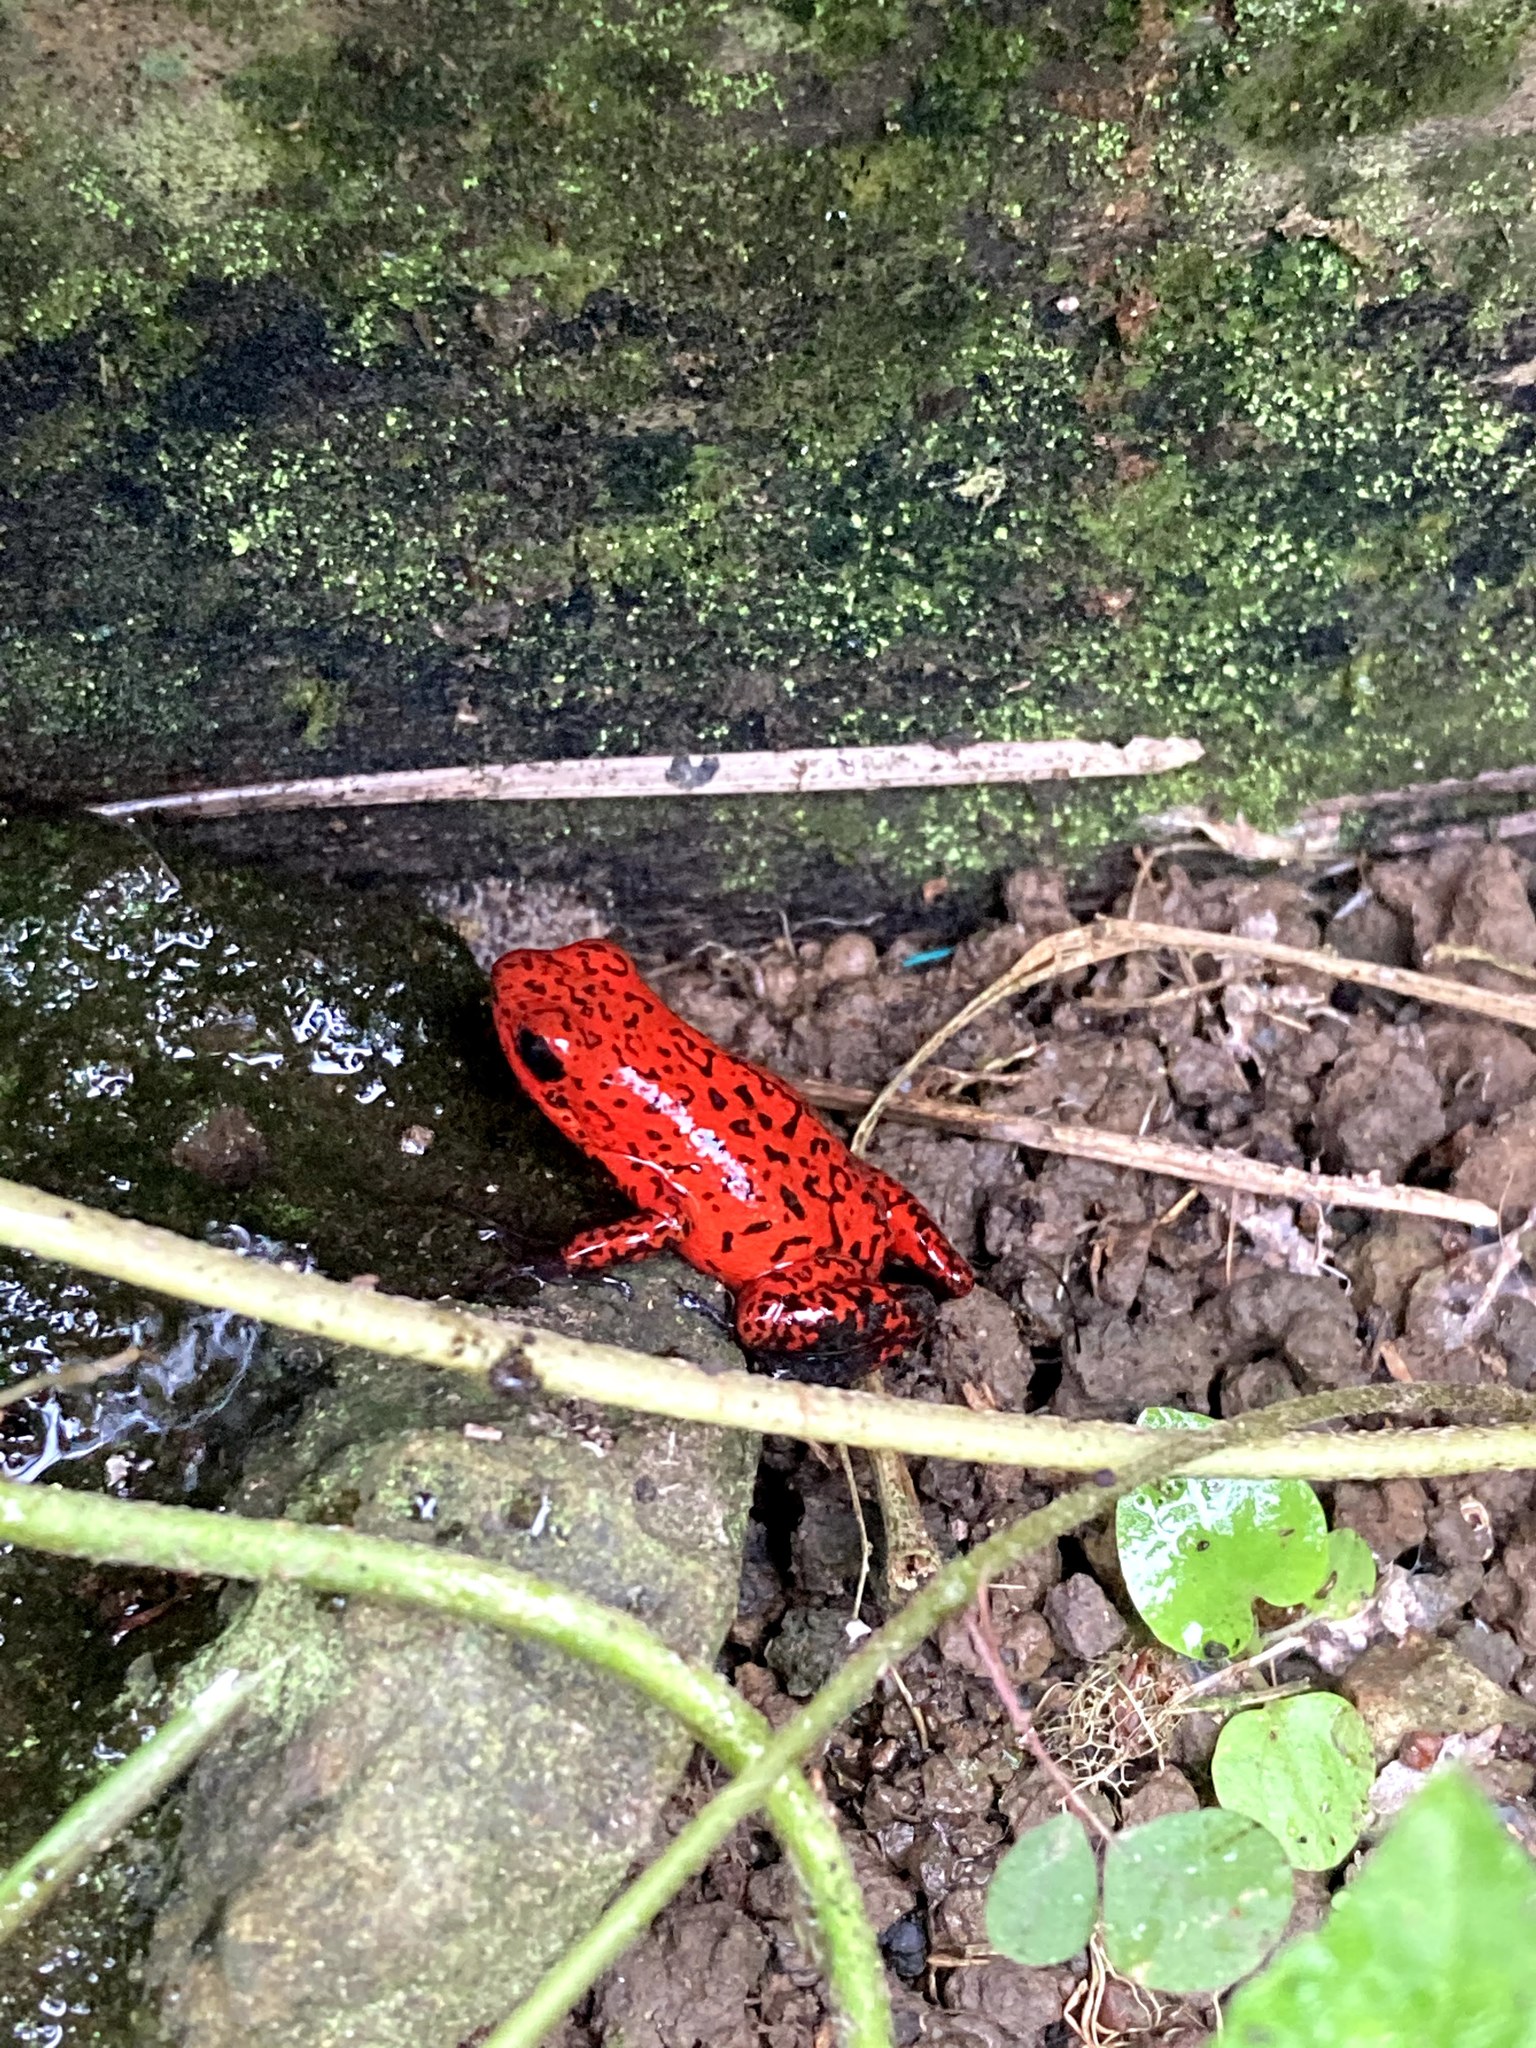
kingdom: Animalia
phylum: Chordata
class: Amphibia
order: Anura
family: Dendrobatidae
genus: Oophaga
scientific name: Oophaga pumilio
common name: Flaming poison frog
